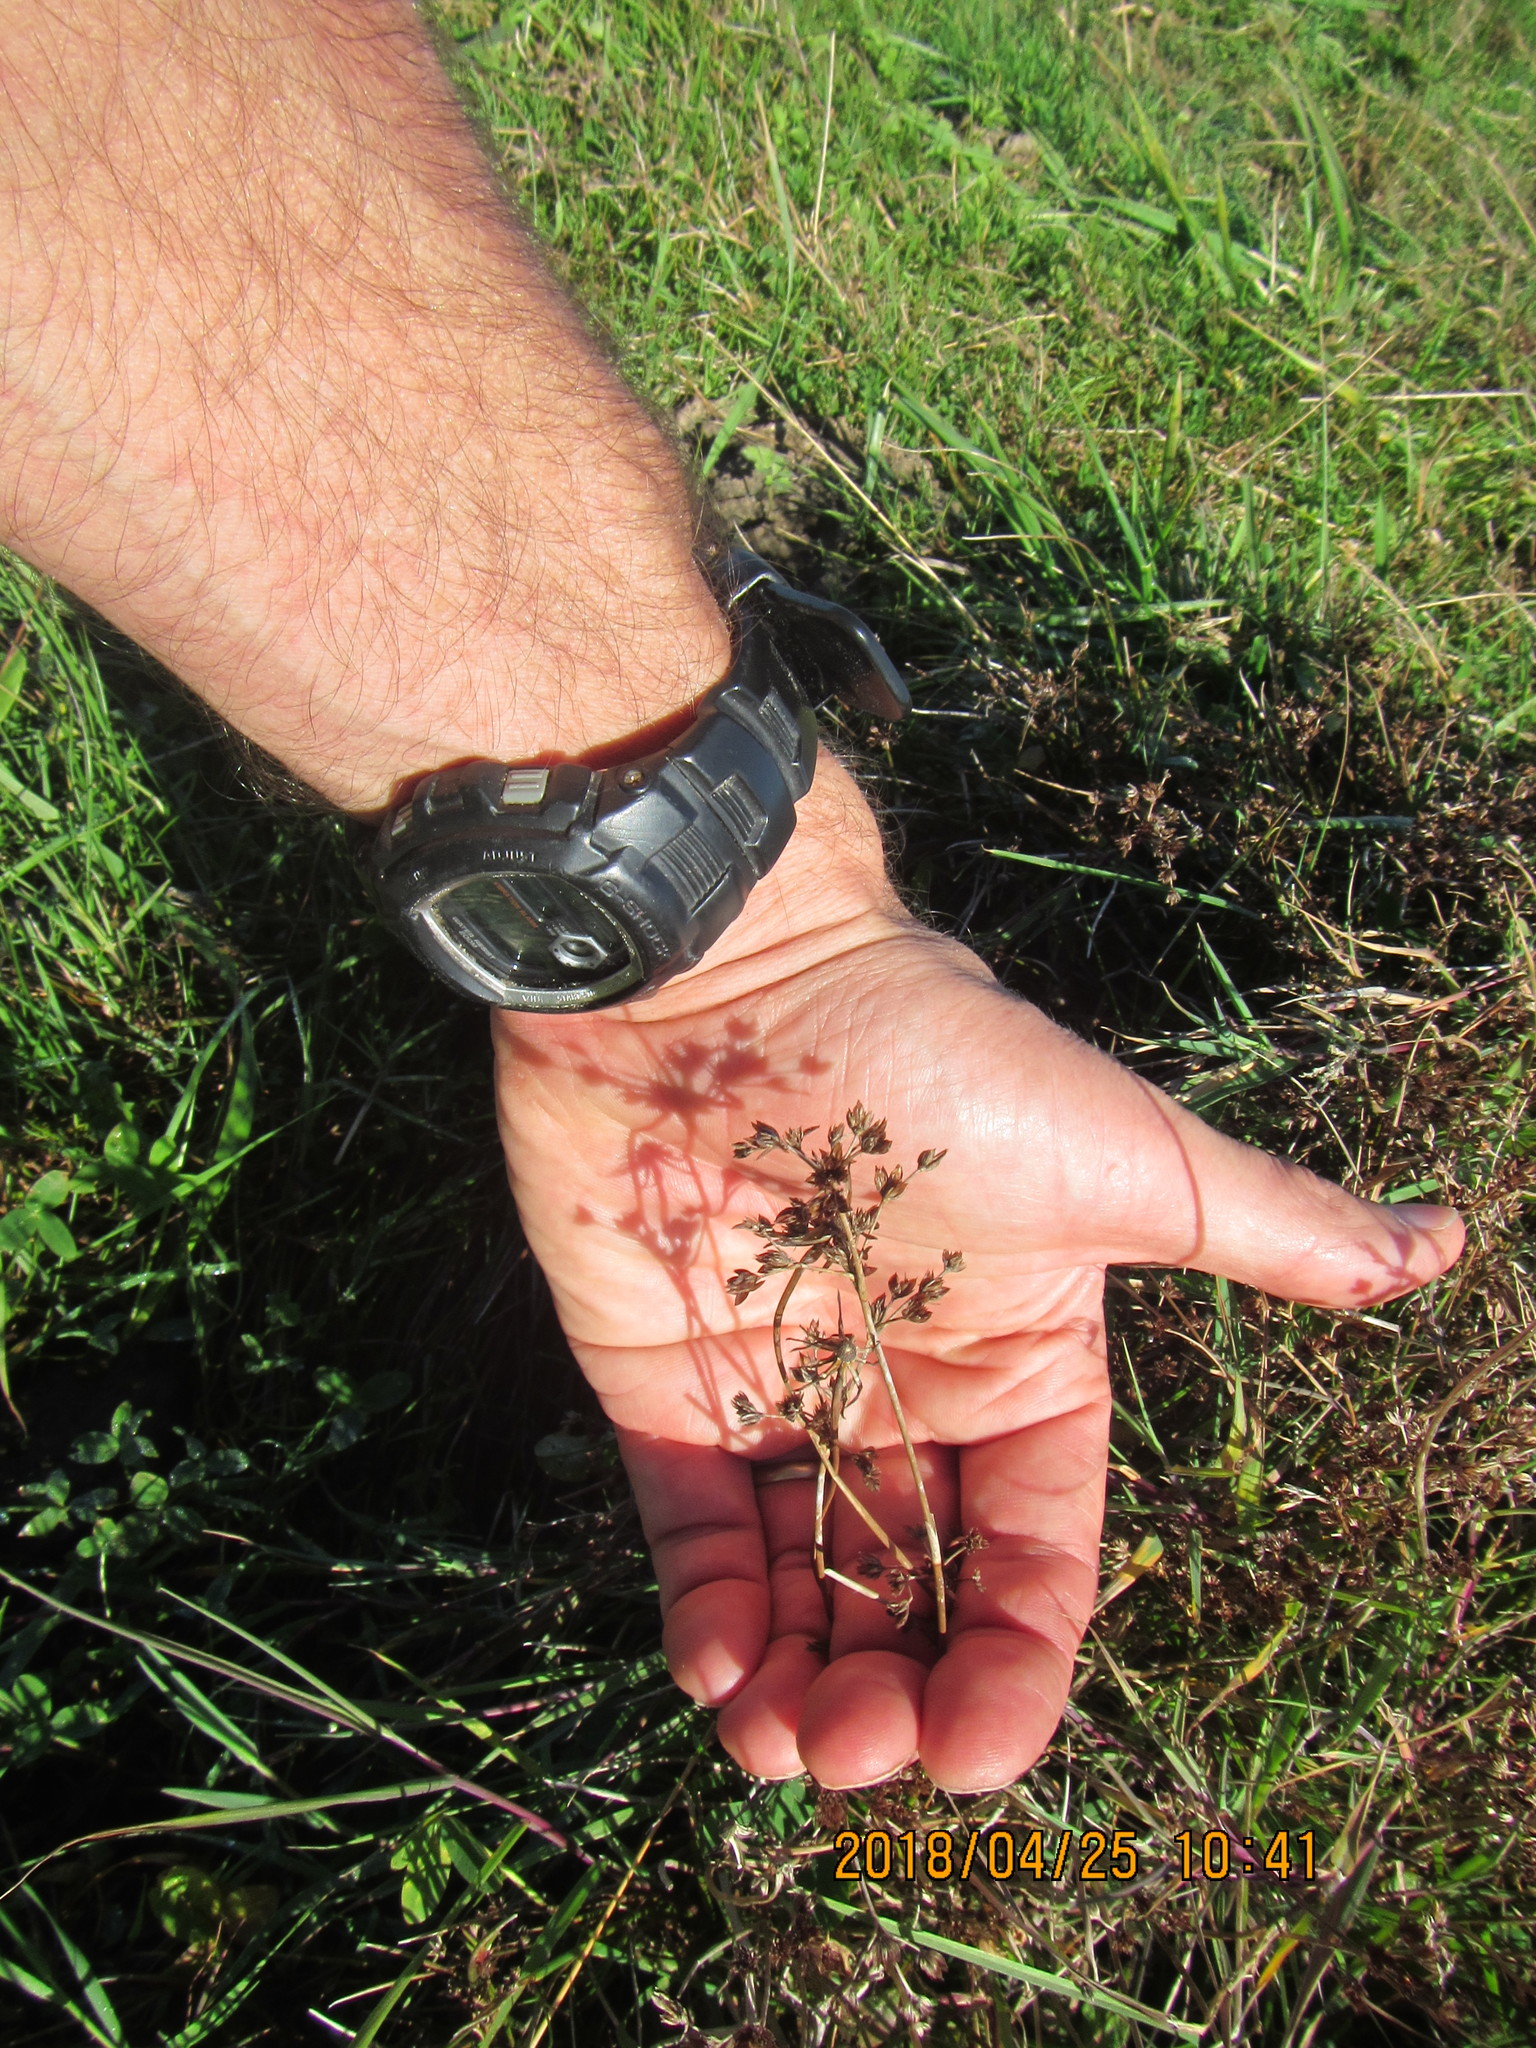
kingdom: Plantae
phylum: Tracheophyta
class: Liliopsida
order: Poales
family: Juncaceae
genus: Juncus
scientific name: Juncus articulatus
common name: Jointed rush
